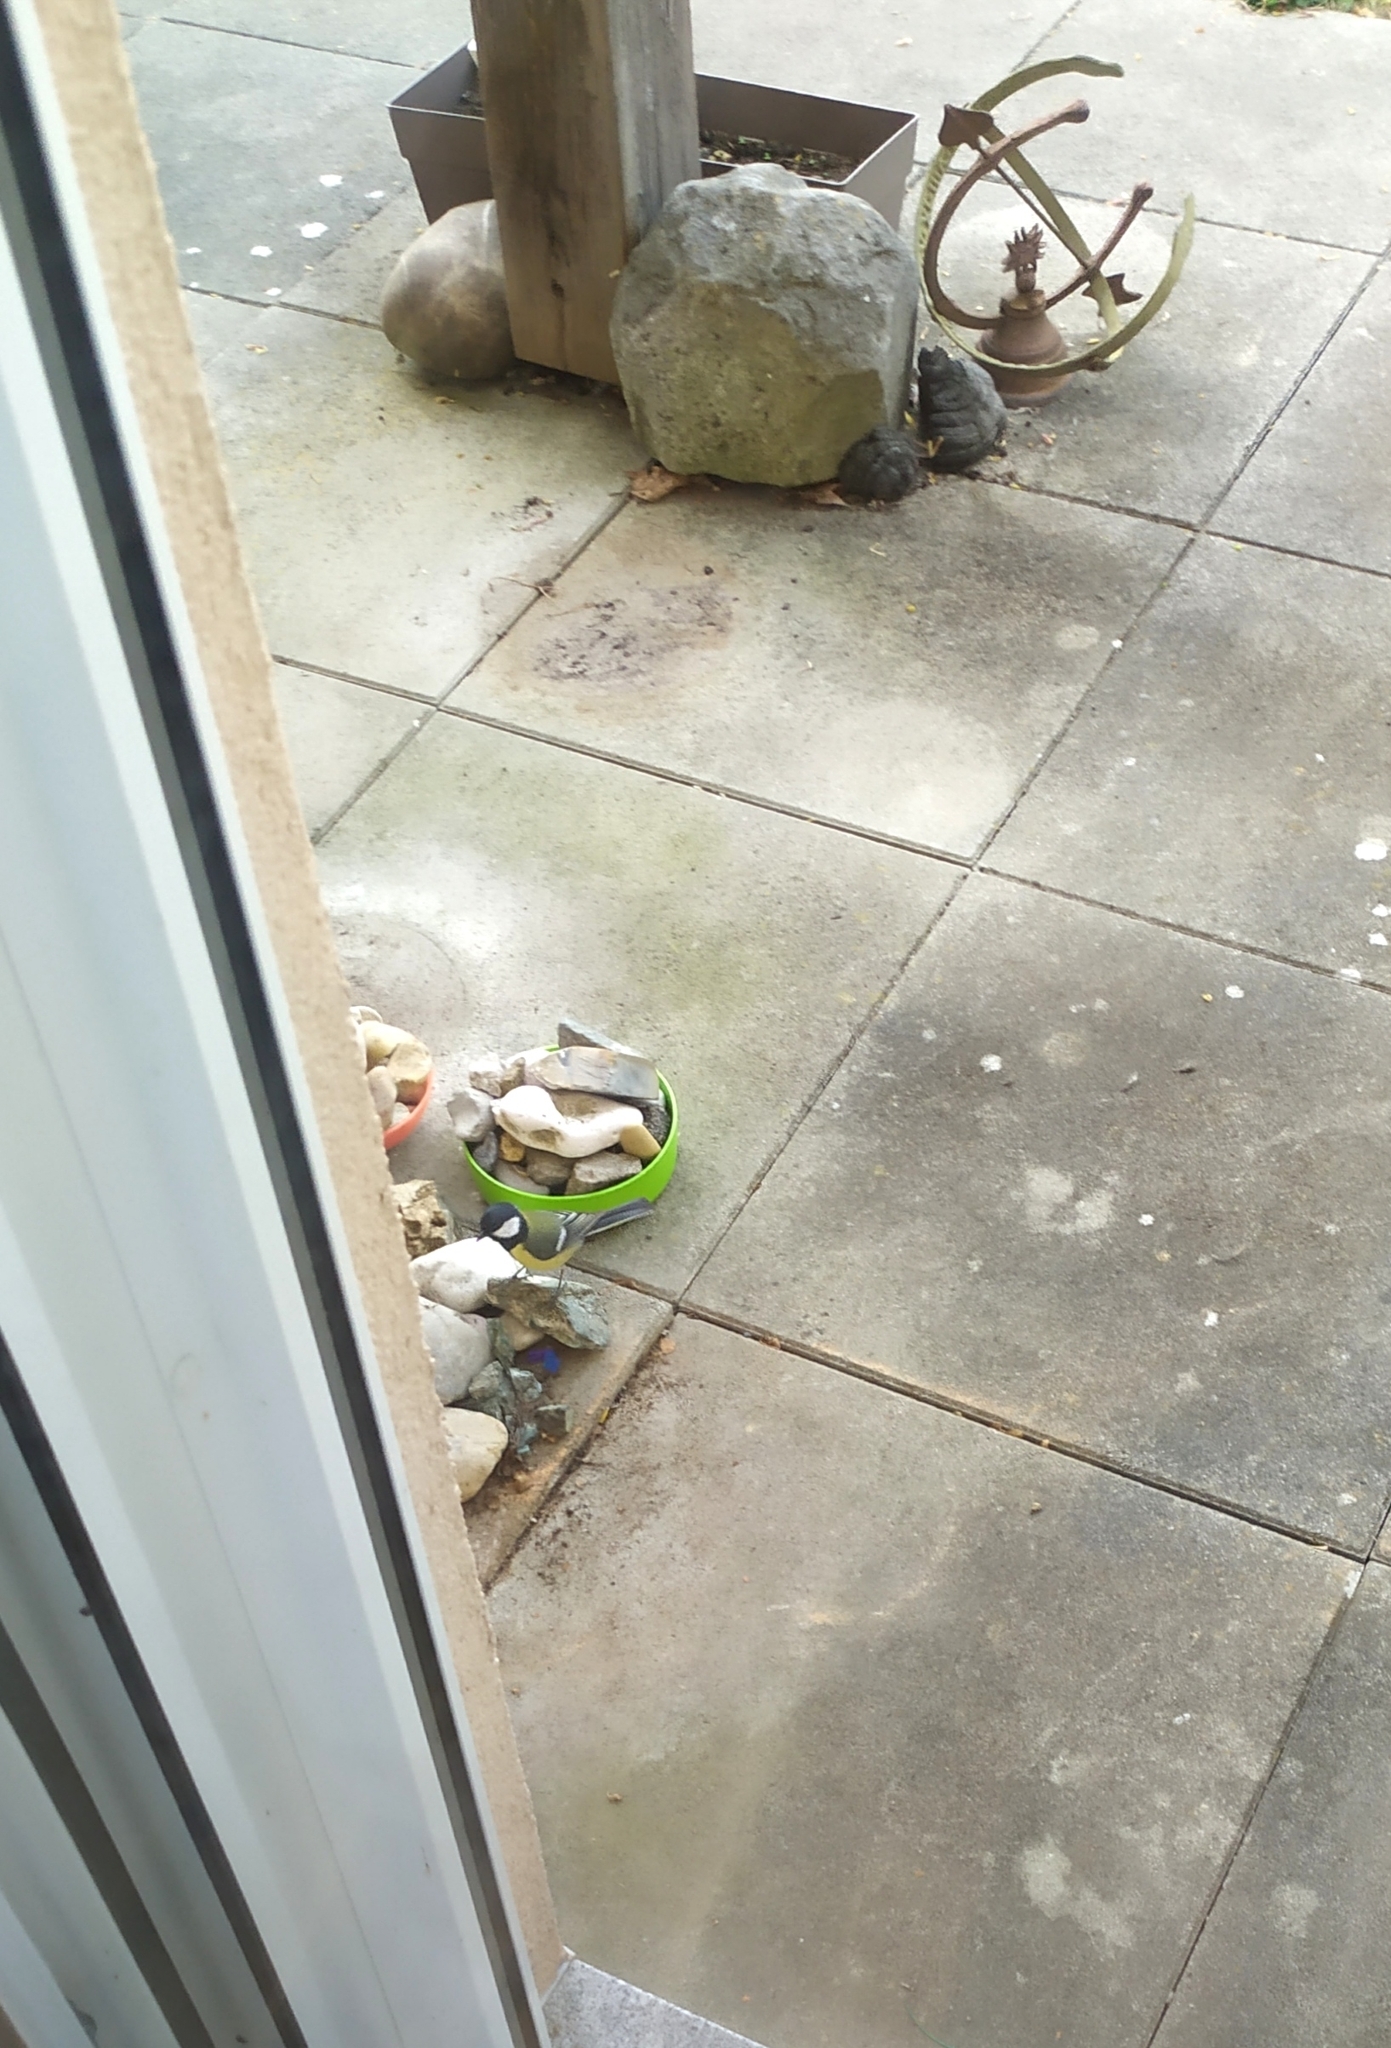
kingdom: Animalia
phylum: Chordata
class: Aves
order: Passeriformes
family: Paridae
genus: Parus
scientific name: Parus major
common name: Great tit
